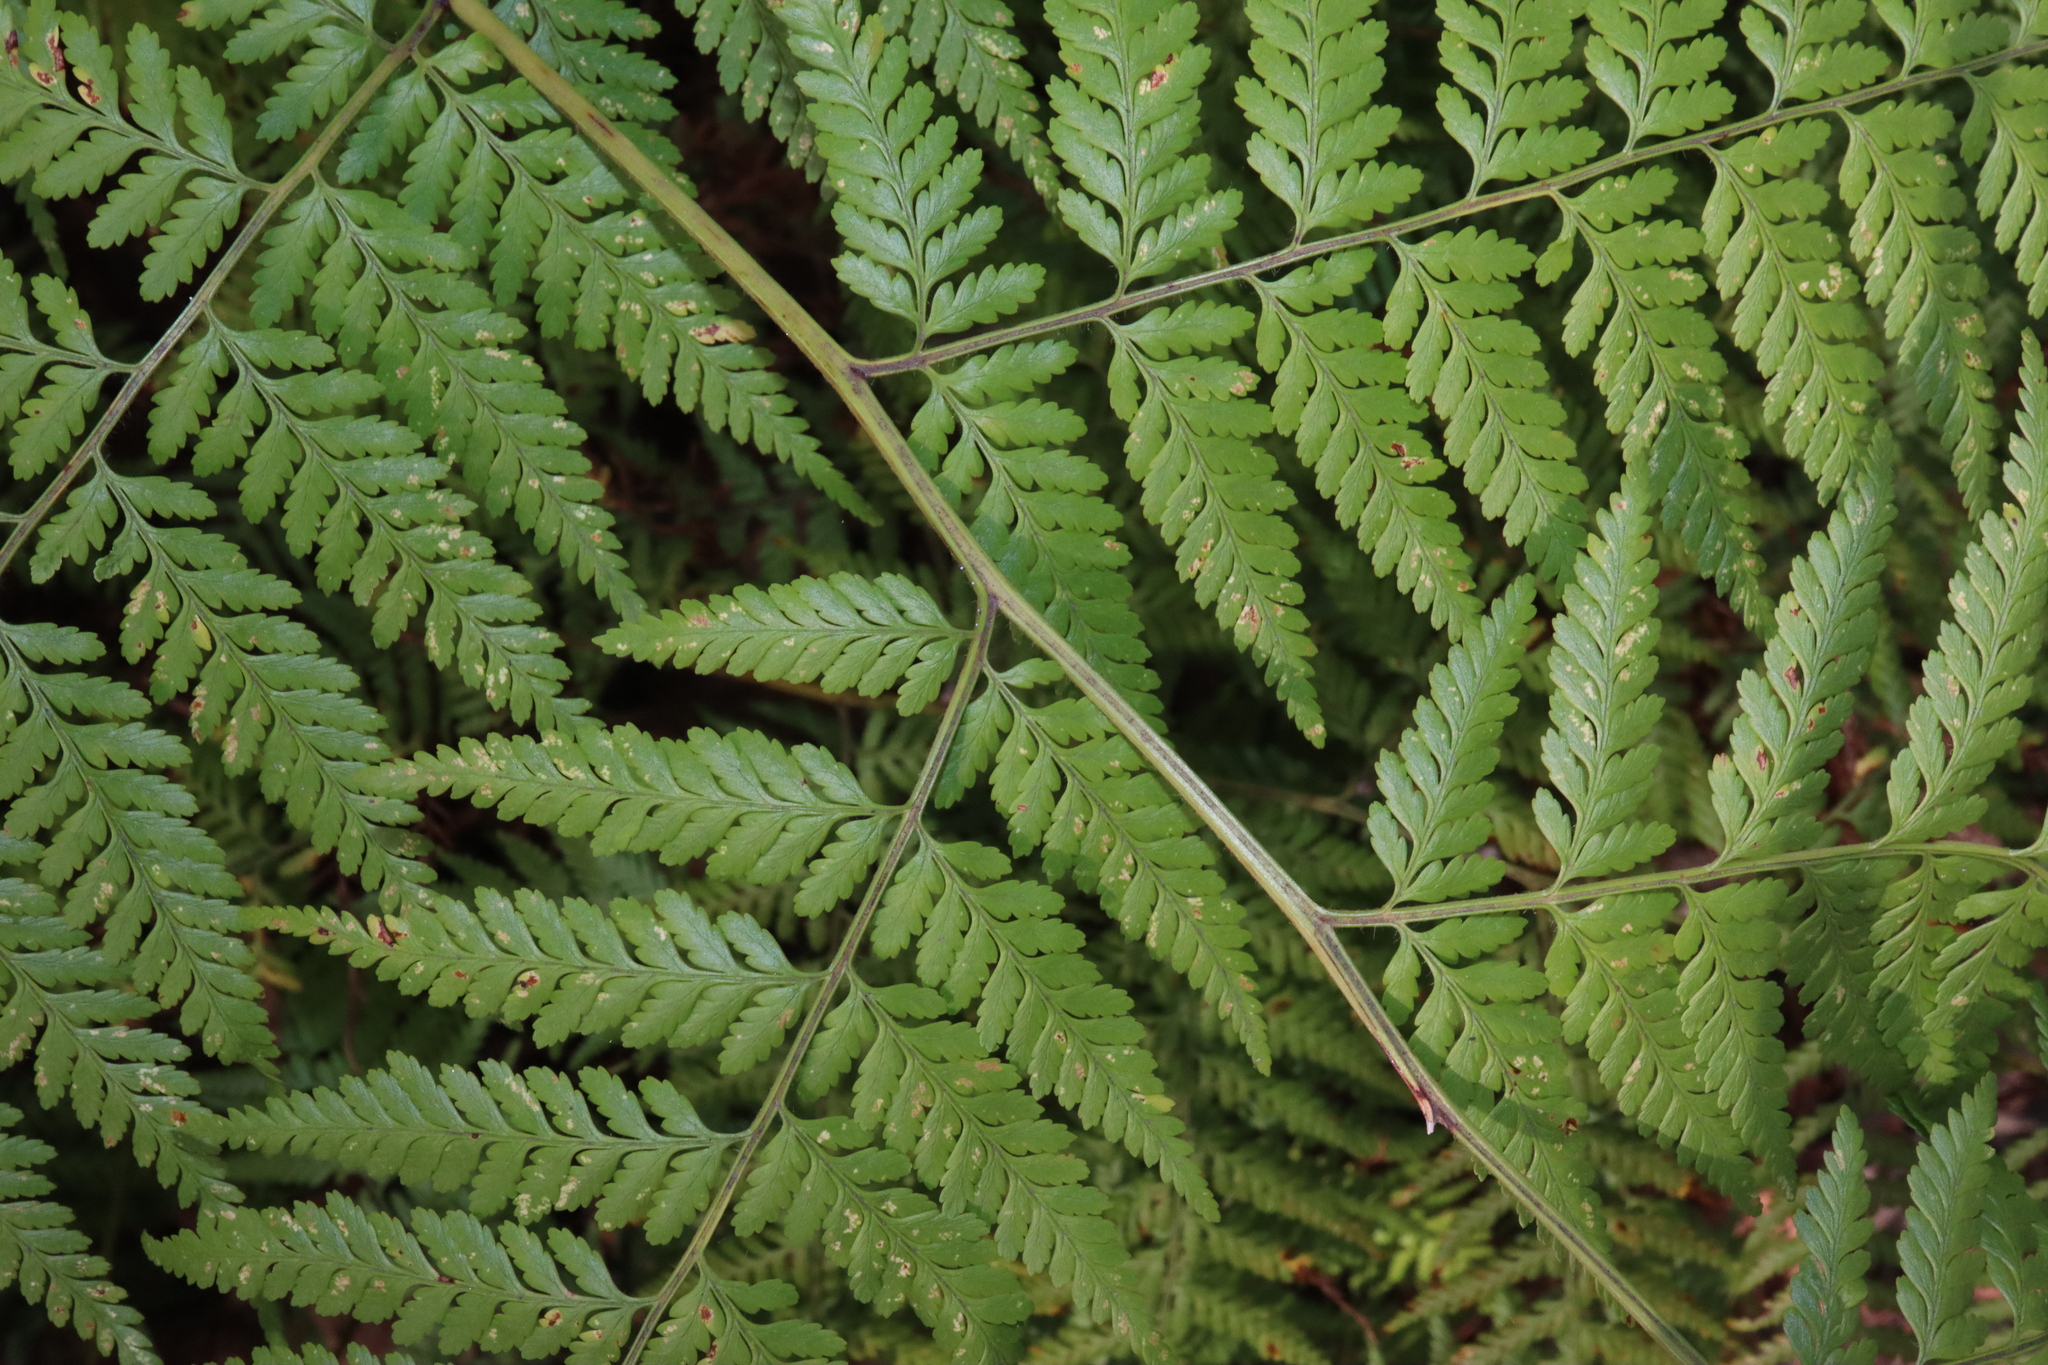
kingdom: Plantae
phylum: Tracheophyta
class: Polypodiopsida
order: Cyatheales
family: Dicksoniaceae
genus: Calochlaena
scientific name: Calochlaena dubia
